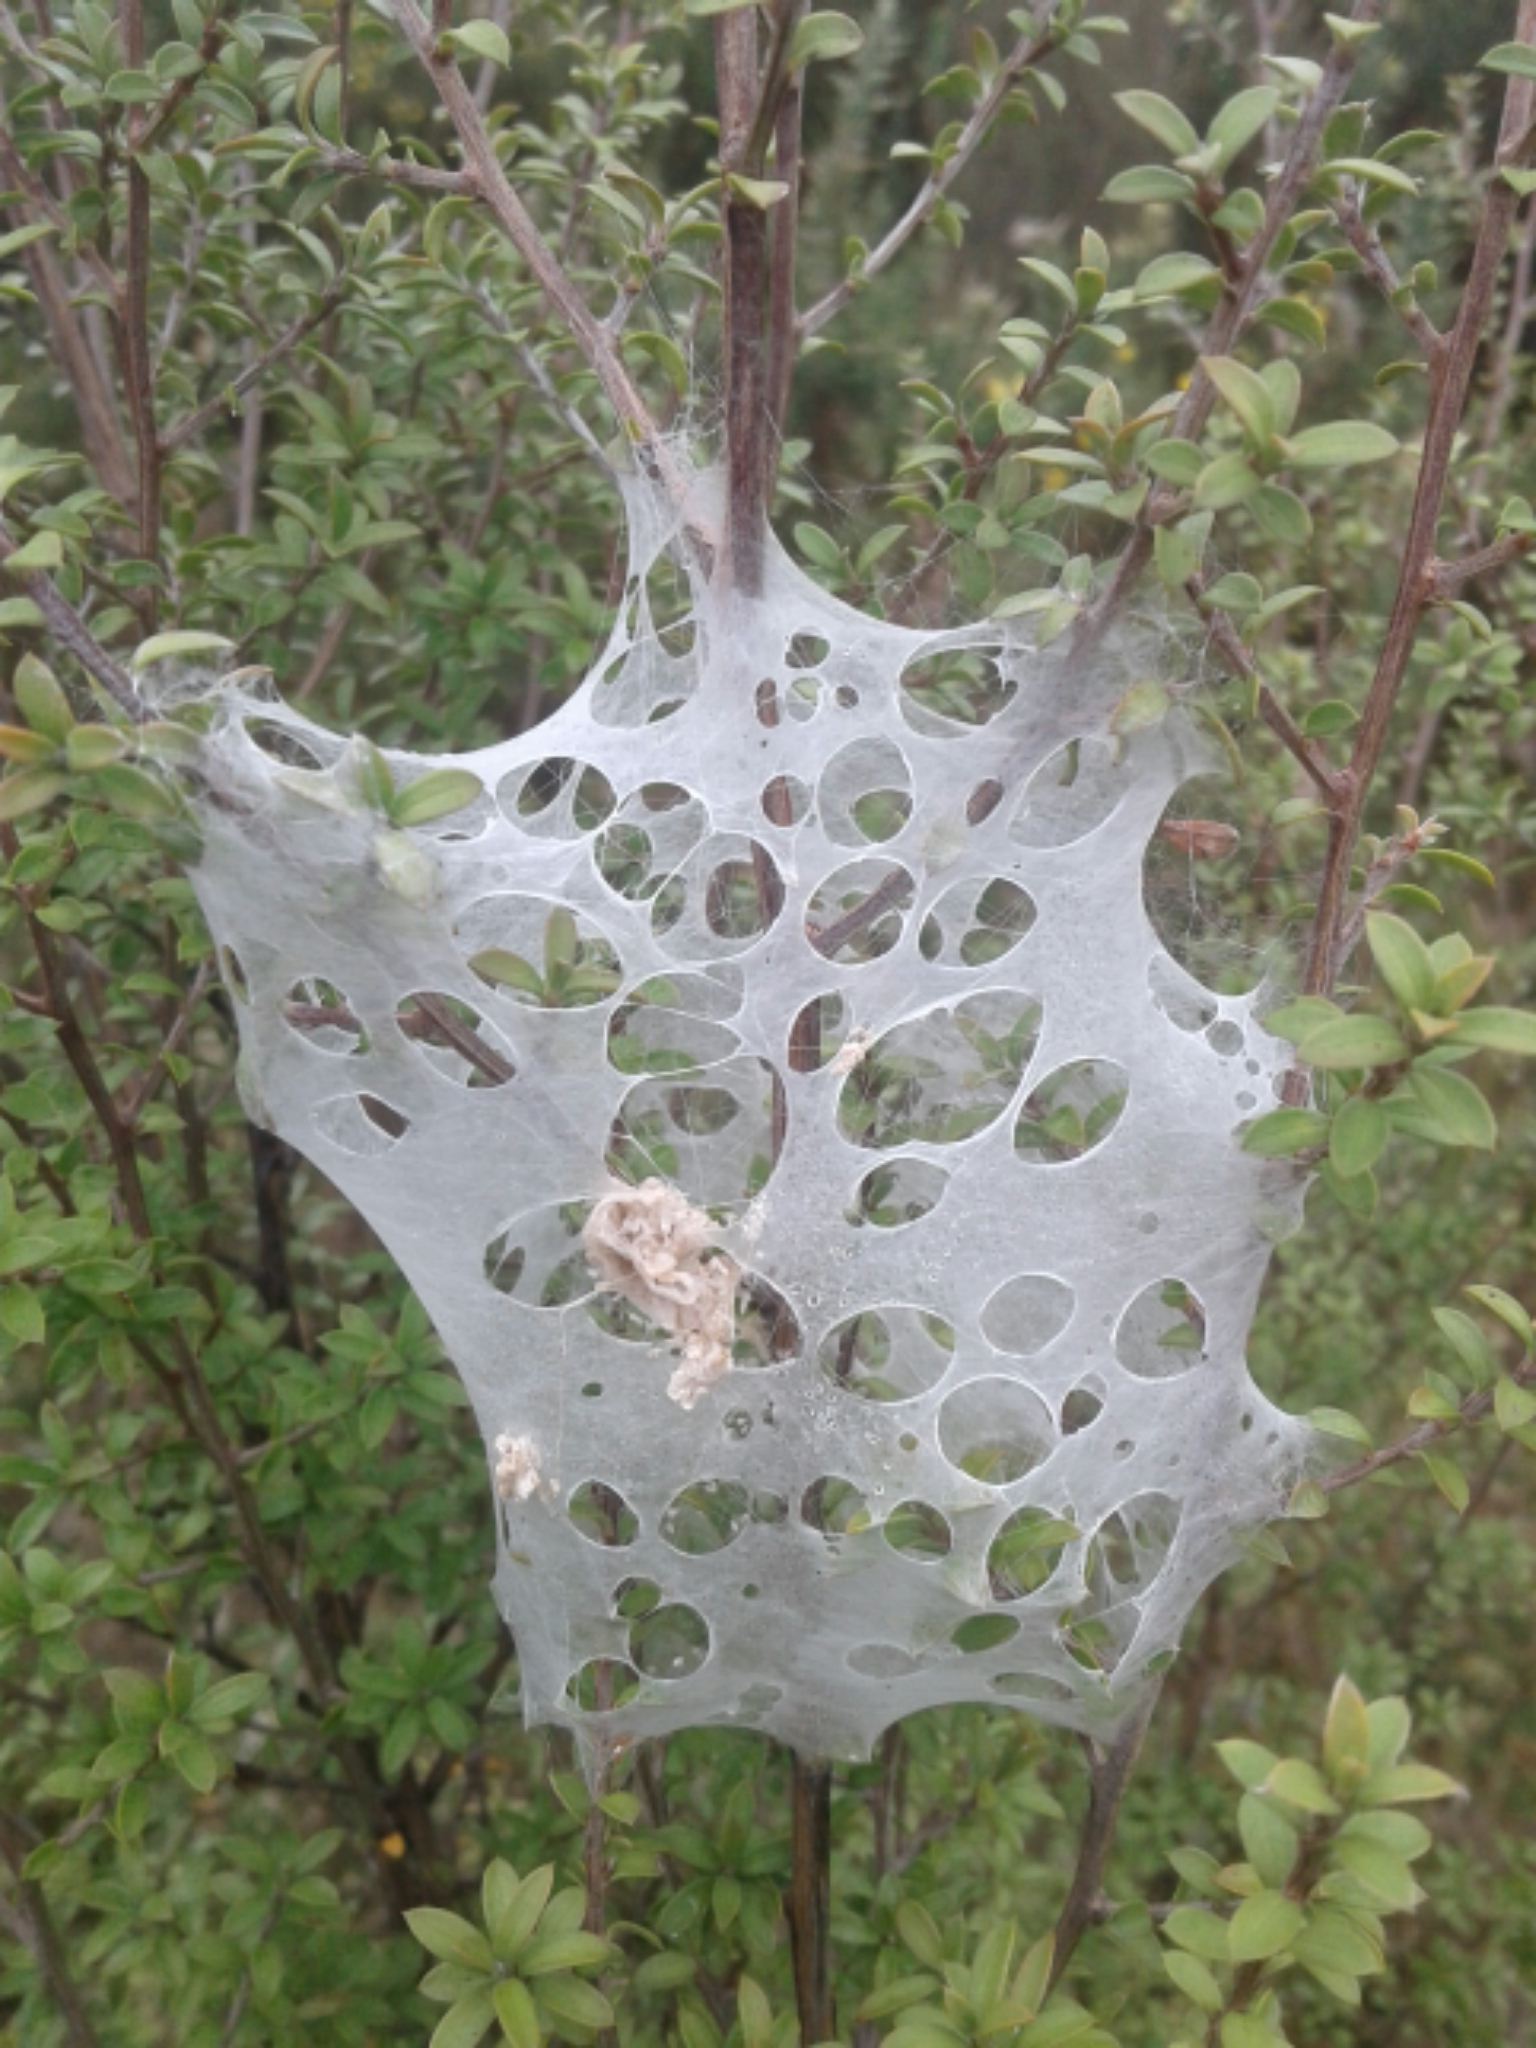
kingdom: Animalia
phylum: Arthropoda
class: Arachnida
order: Araneae
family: Pisauridae
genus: Dolomedes
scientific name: Dolomedes minor
